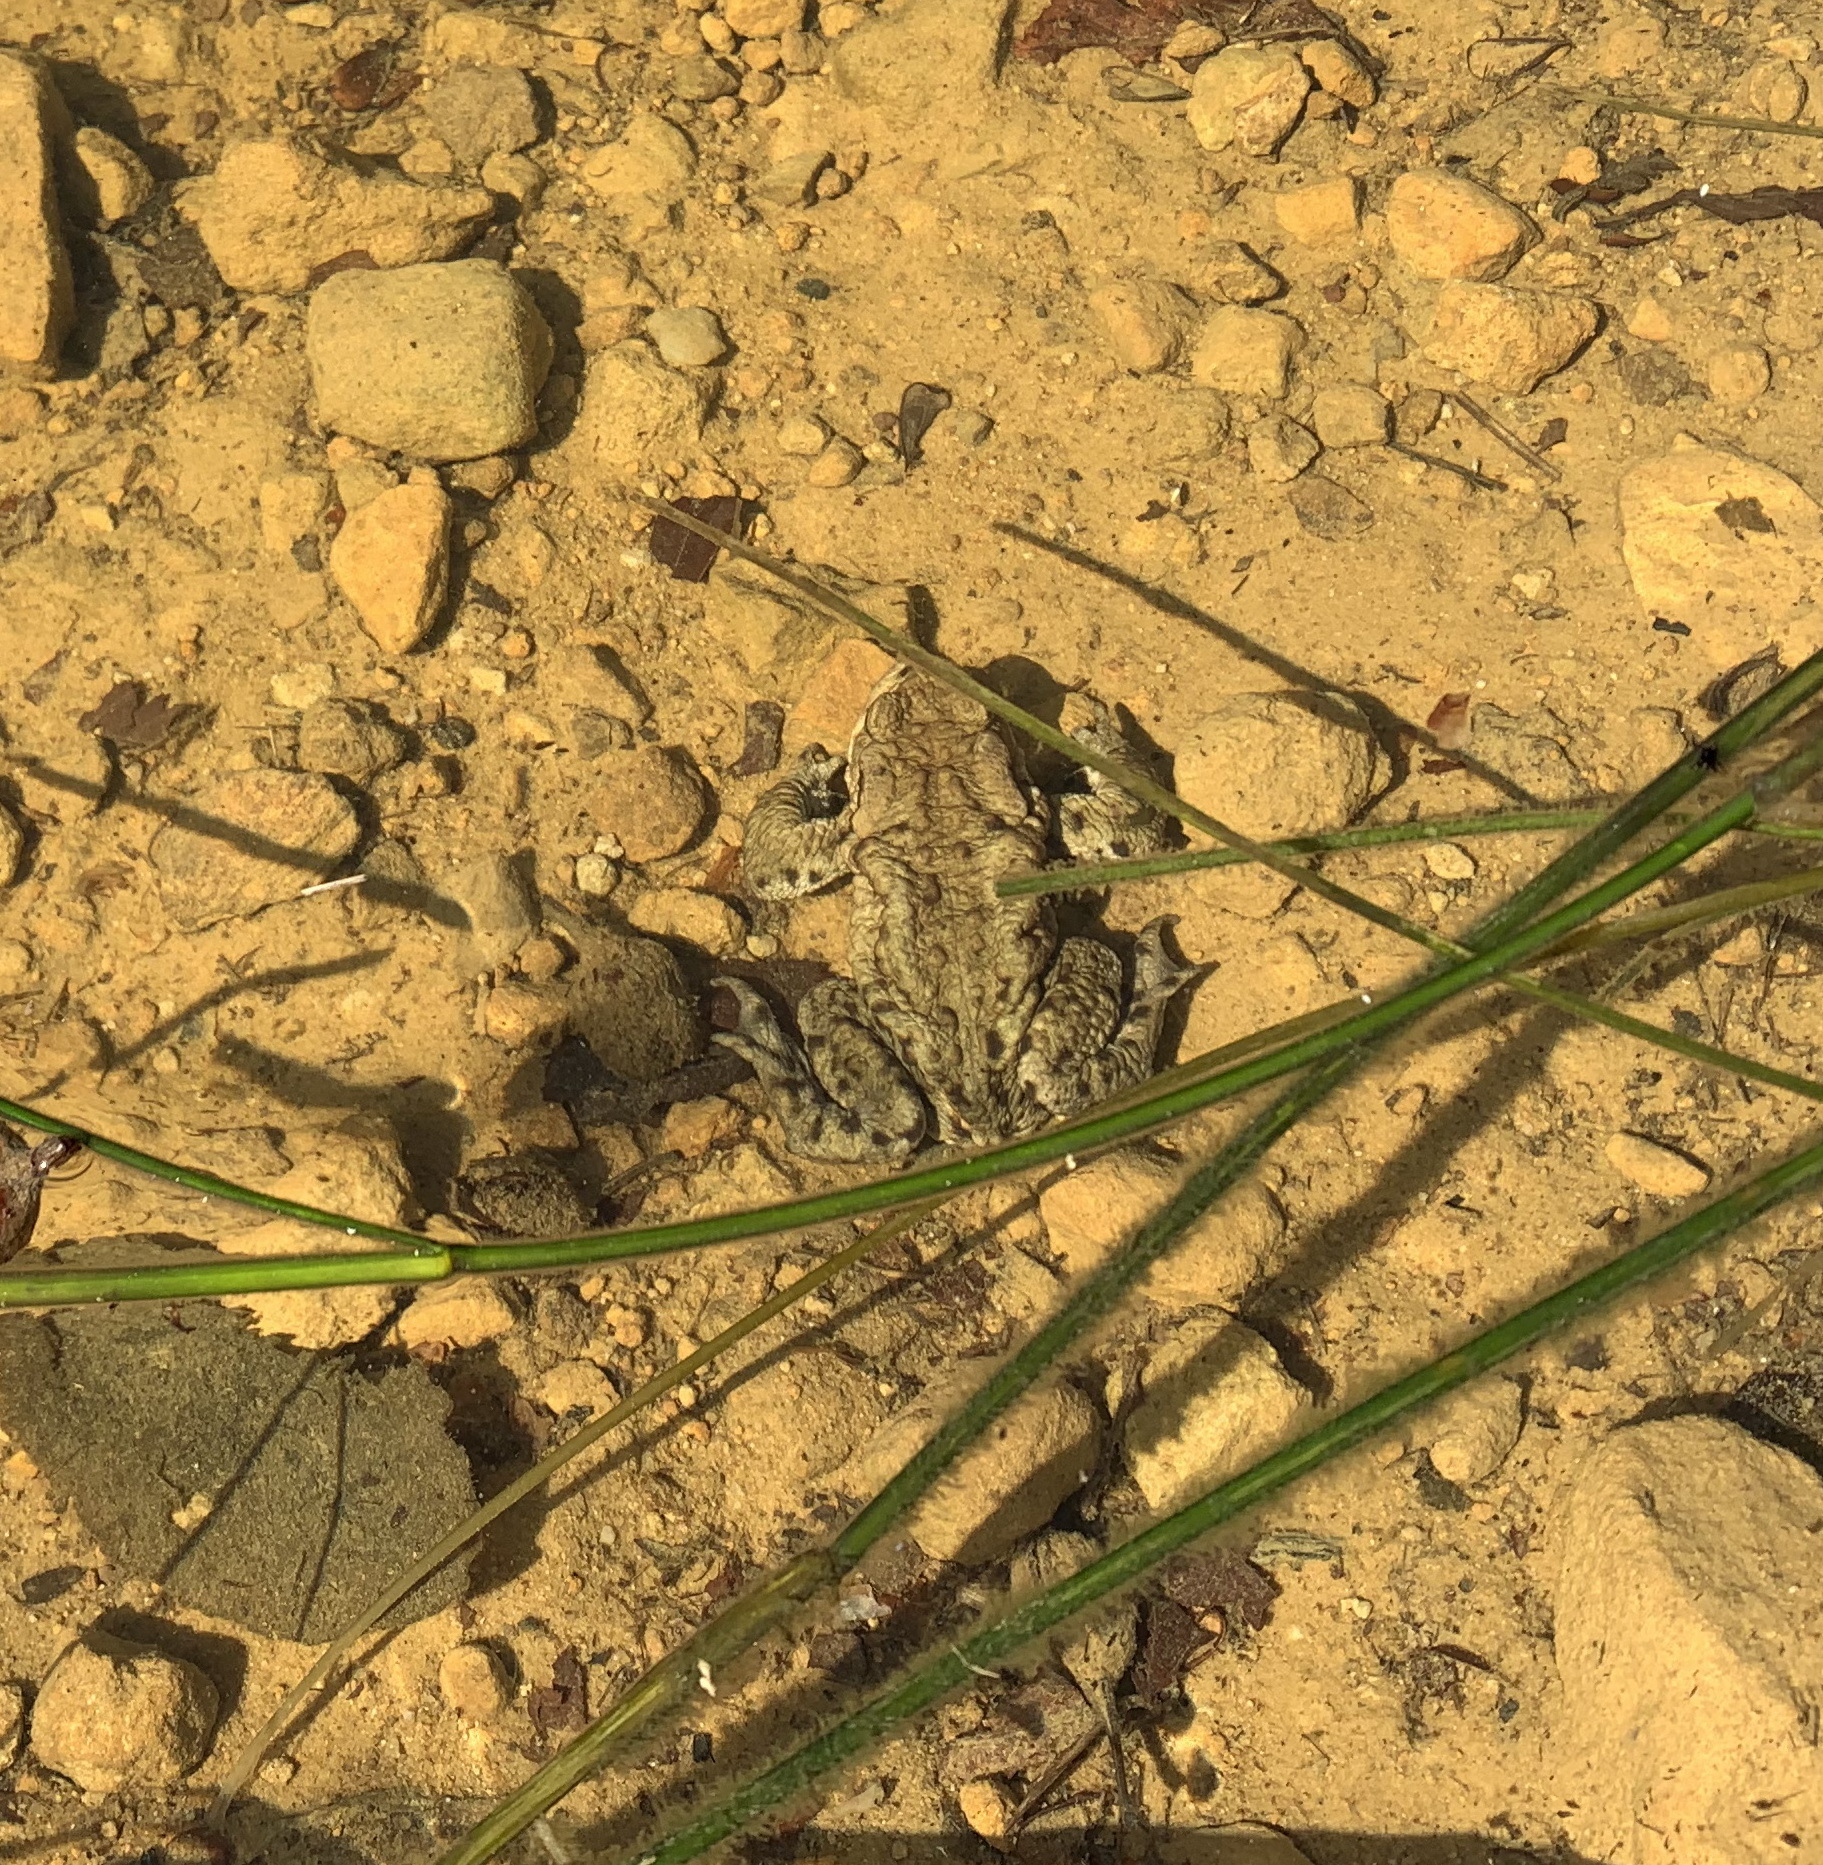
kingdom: Animalia
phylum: Chordata
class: Amphibia
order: Anura
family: Bufonidae
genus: Bufo
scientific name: Bufo bufo
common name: Common toad
